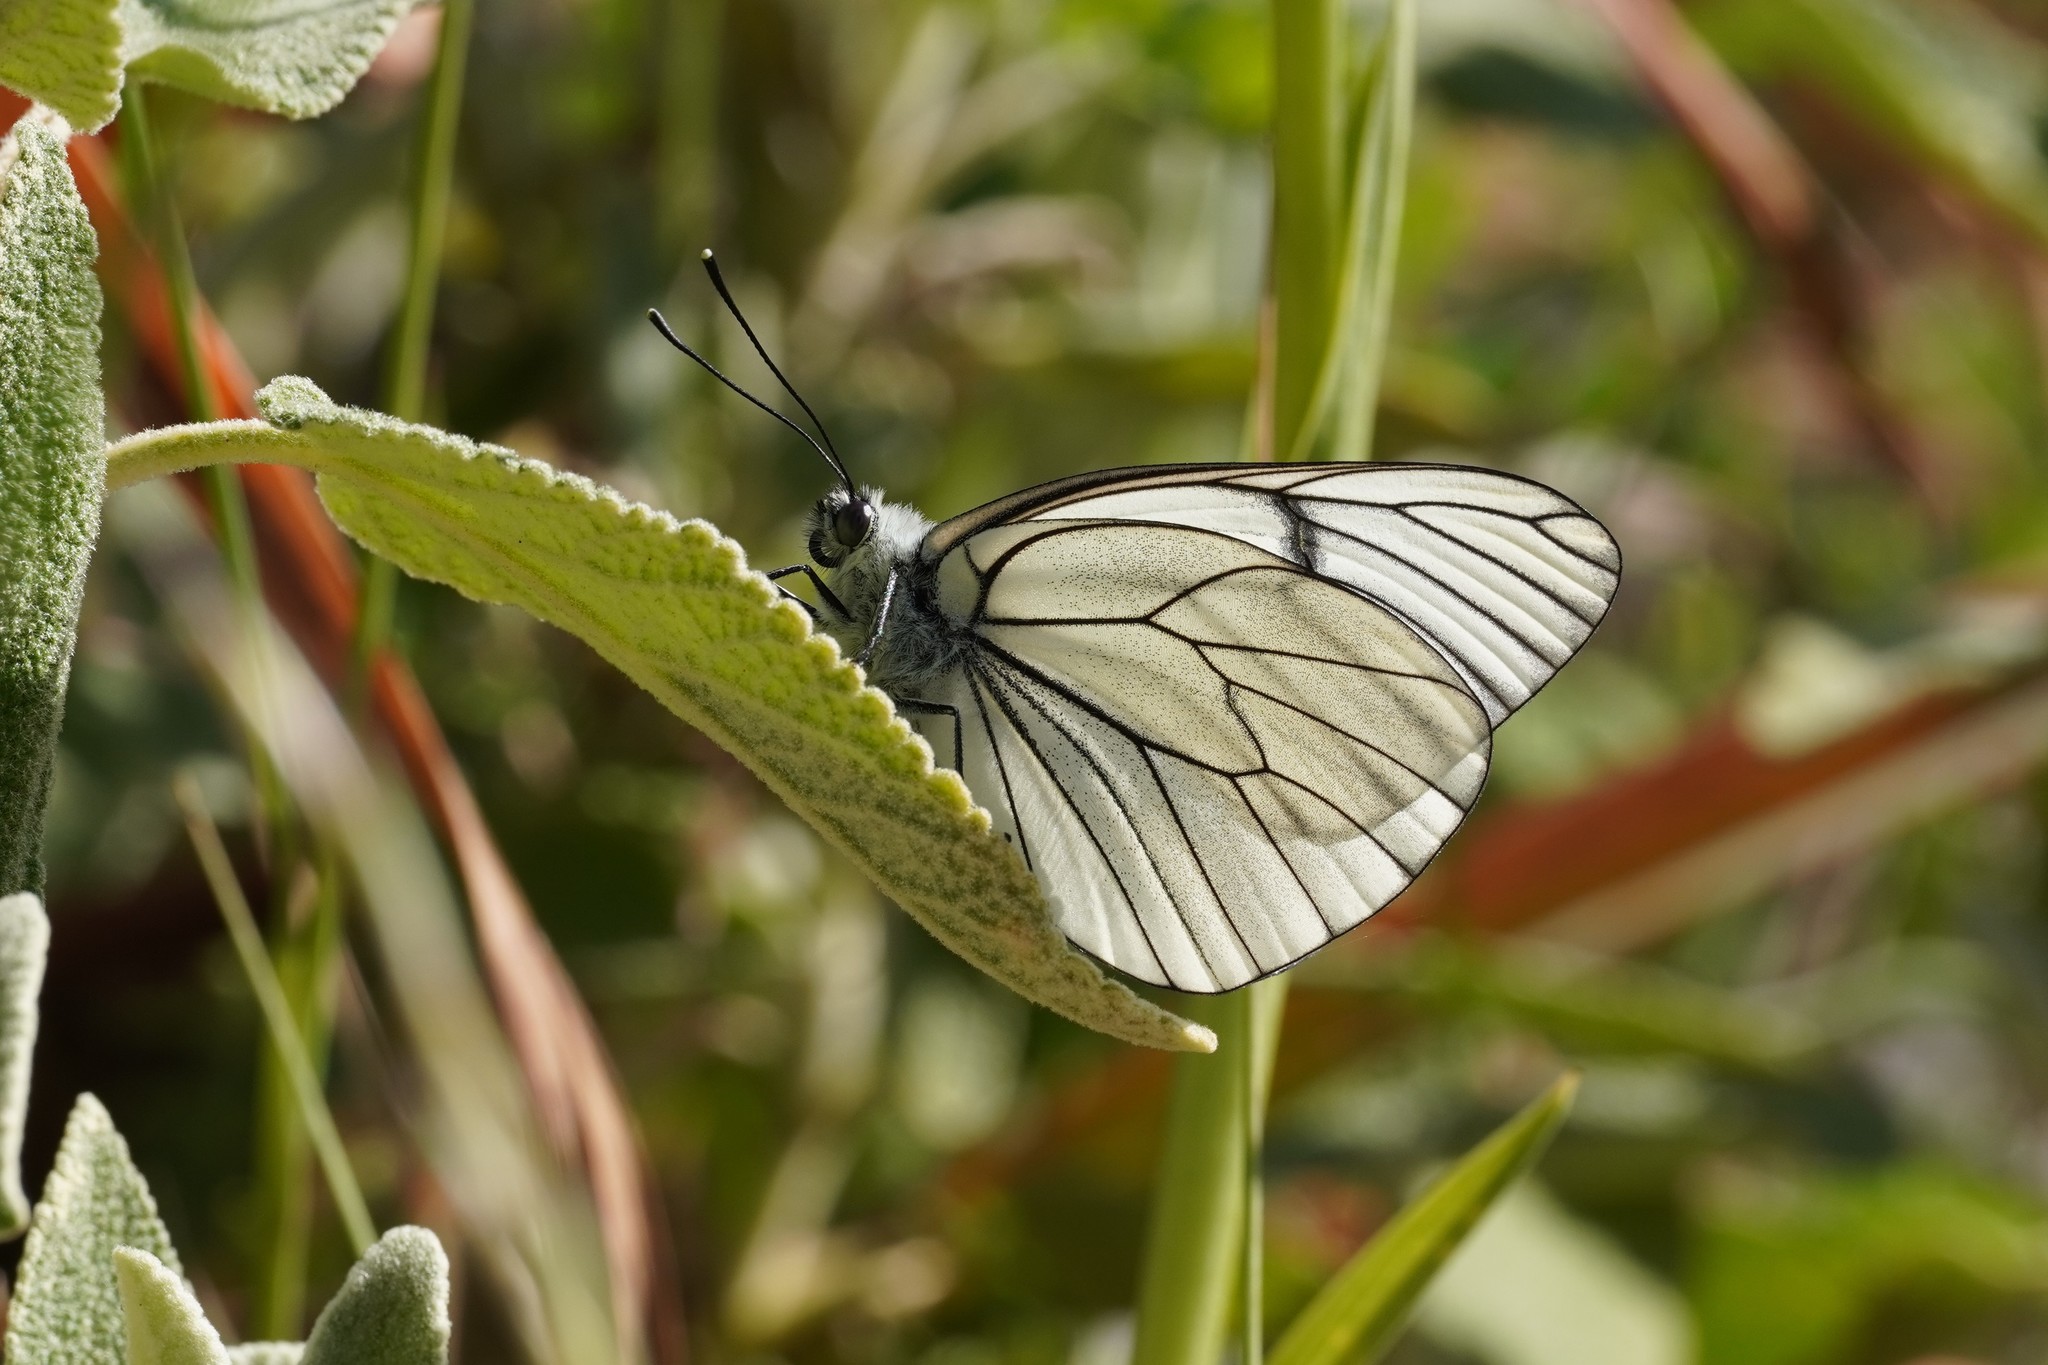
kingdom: Animalia
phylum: Arthropoda
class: Insecta
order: Lepidoptera
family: Pieridae
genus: Aporia
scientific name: Aporia crataegi
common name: Black-veined white
